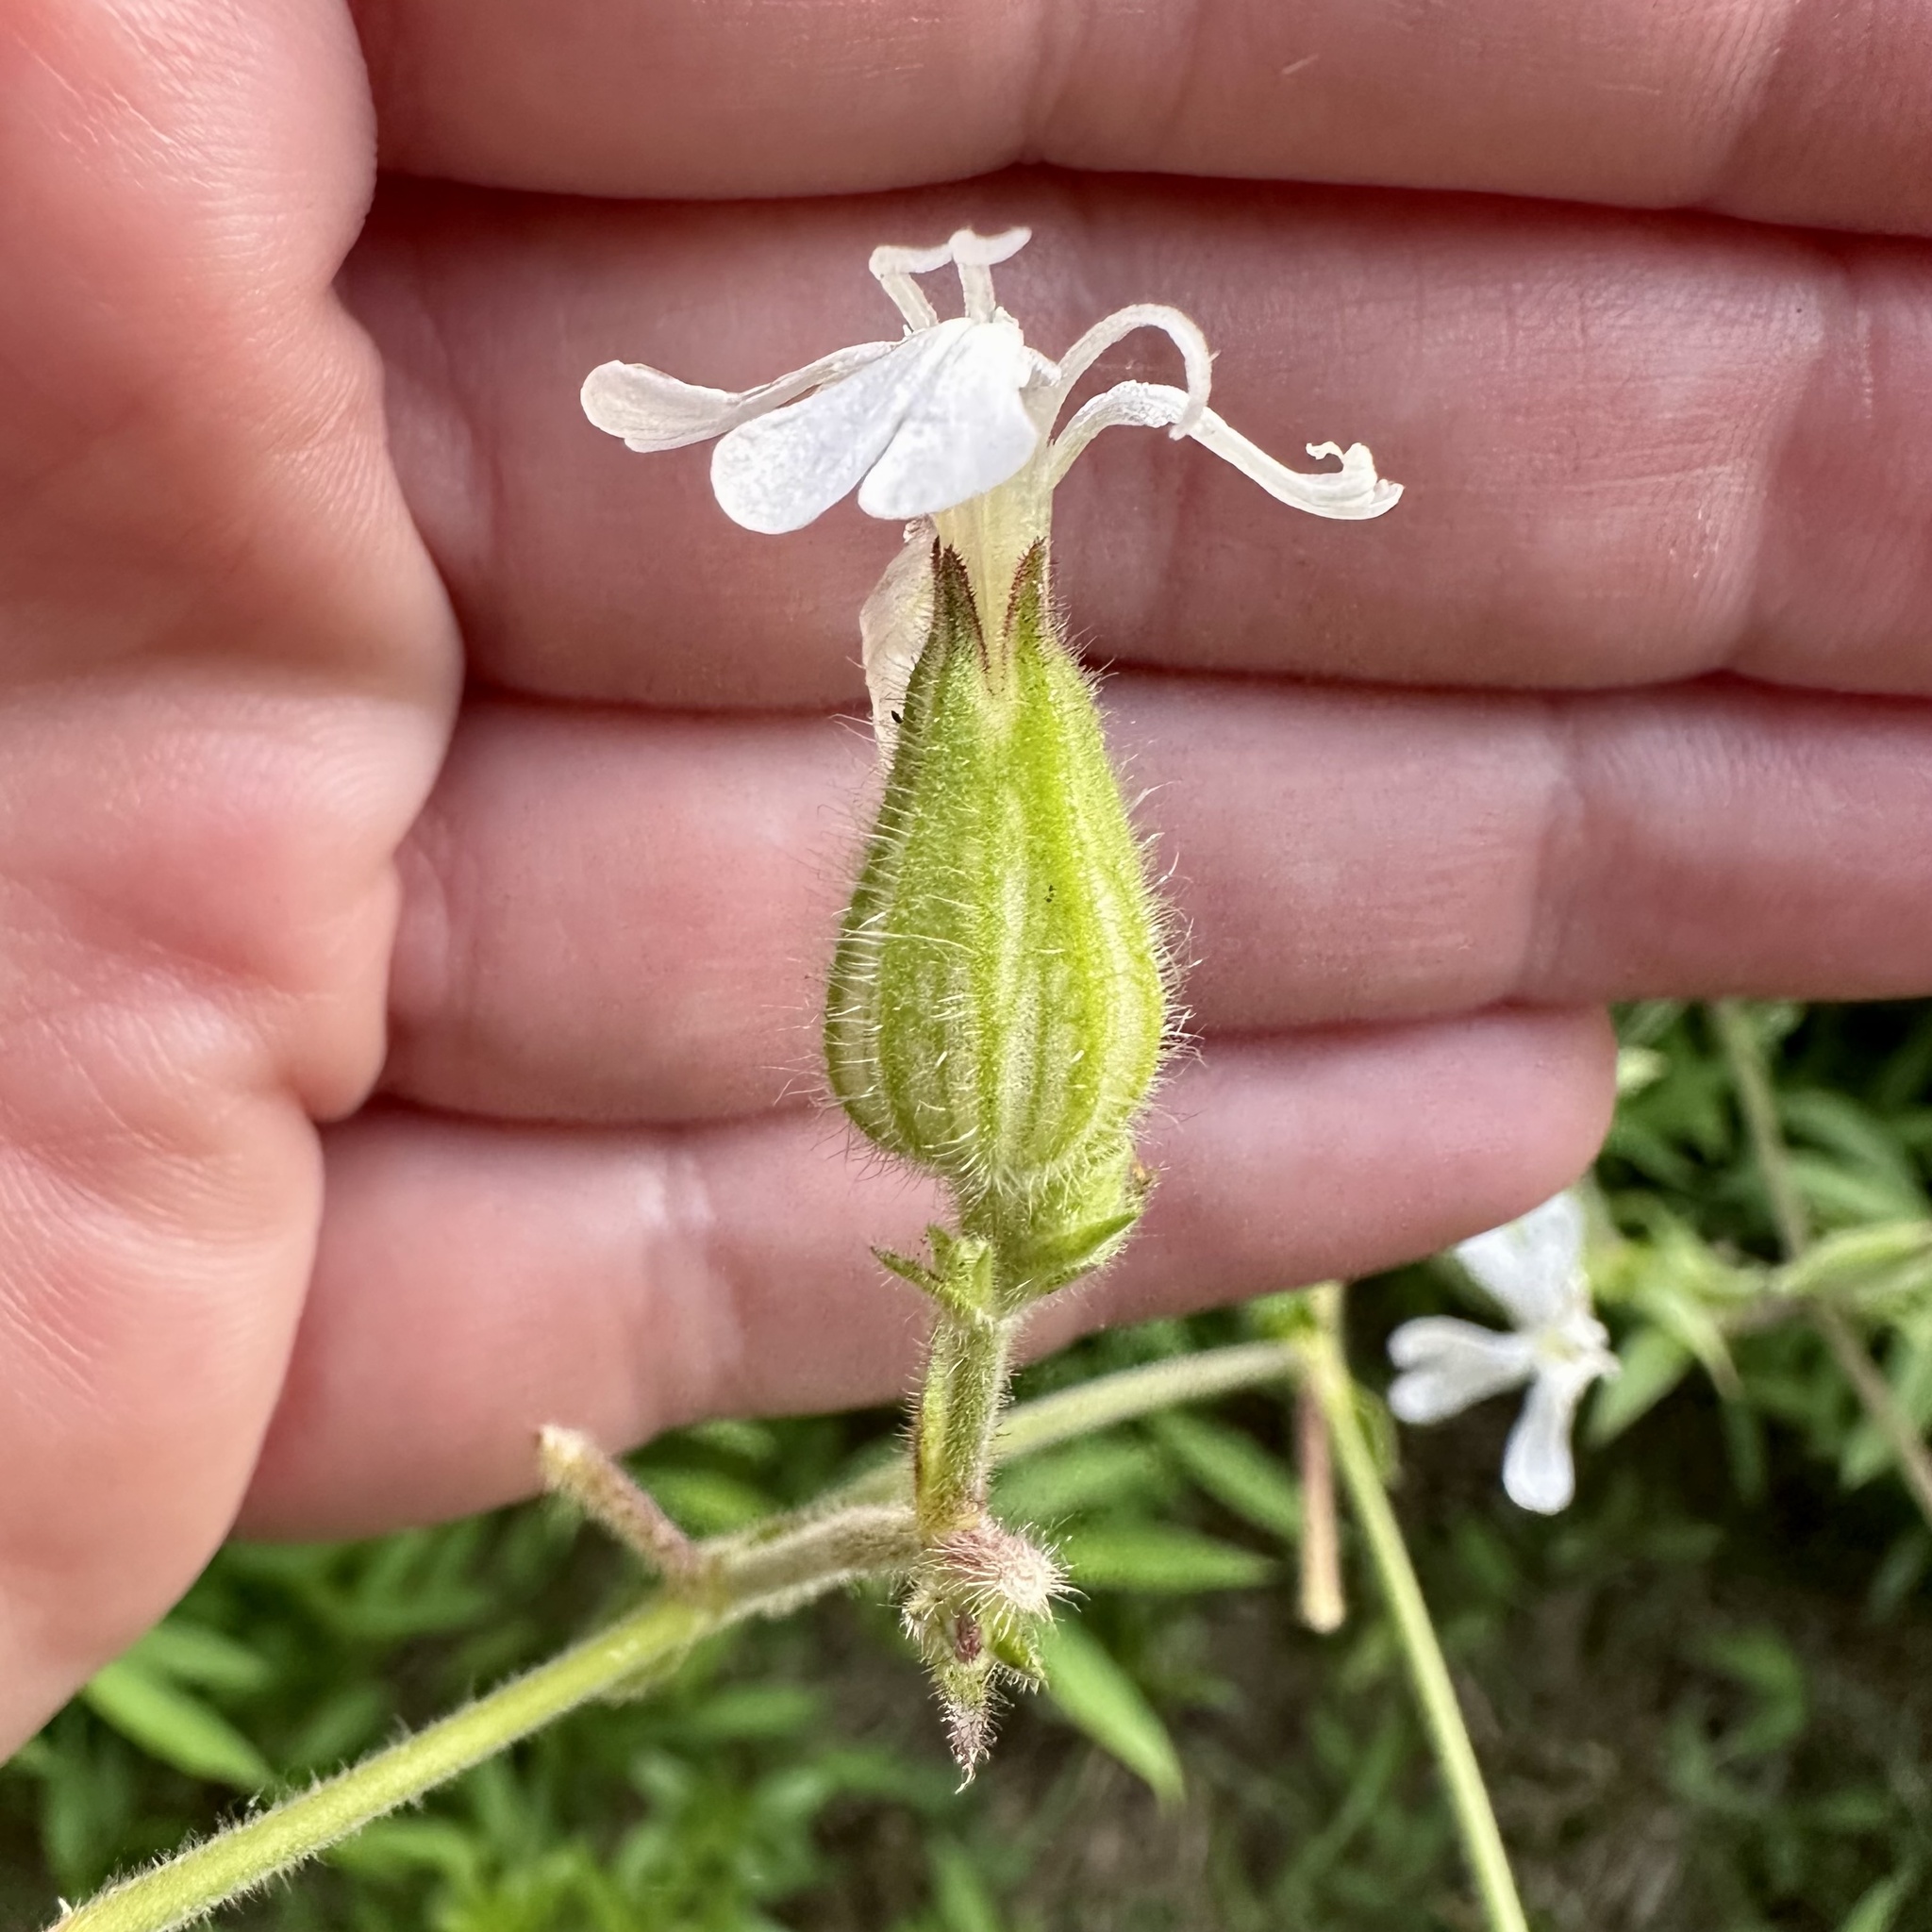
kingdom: Plantae
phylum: Tracheophyta
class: Magnoliopsida
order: Caryophyllales
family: Caryophyllaceae
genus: Silene
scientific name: Silene latifolia
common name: White campion
